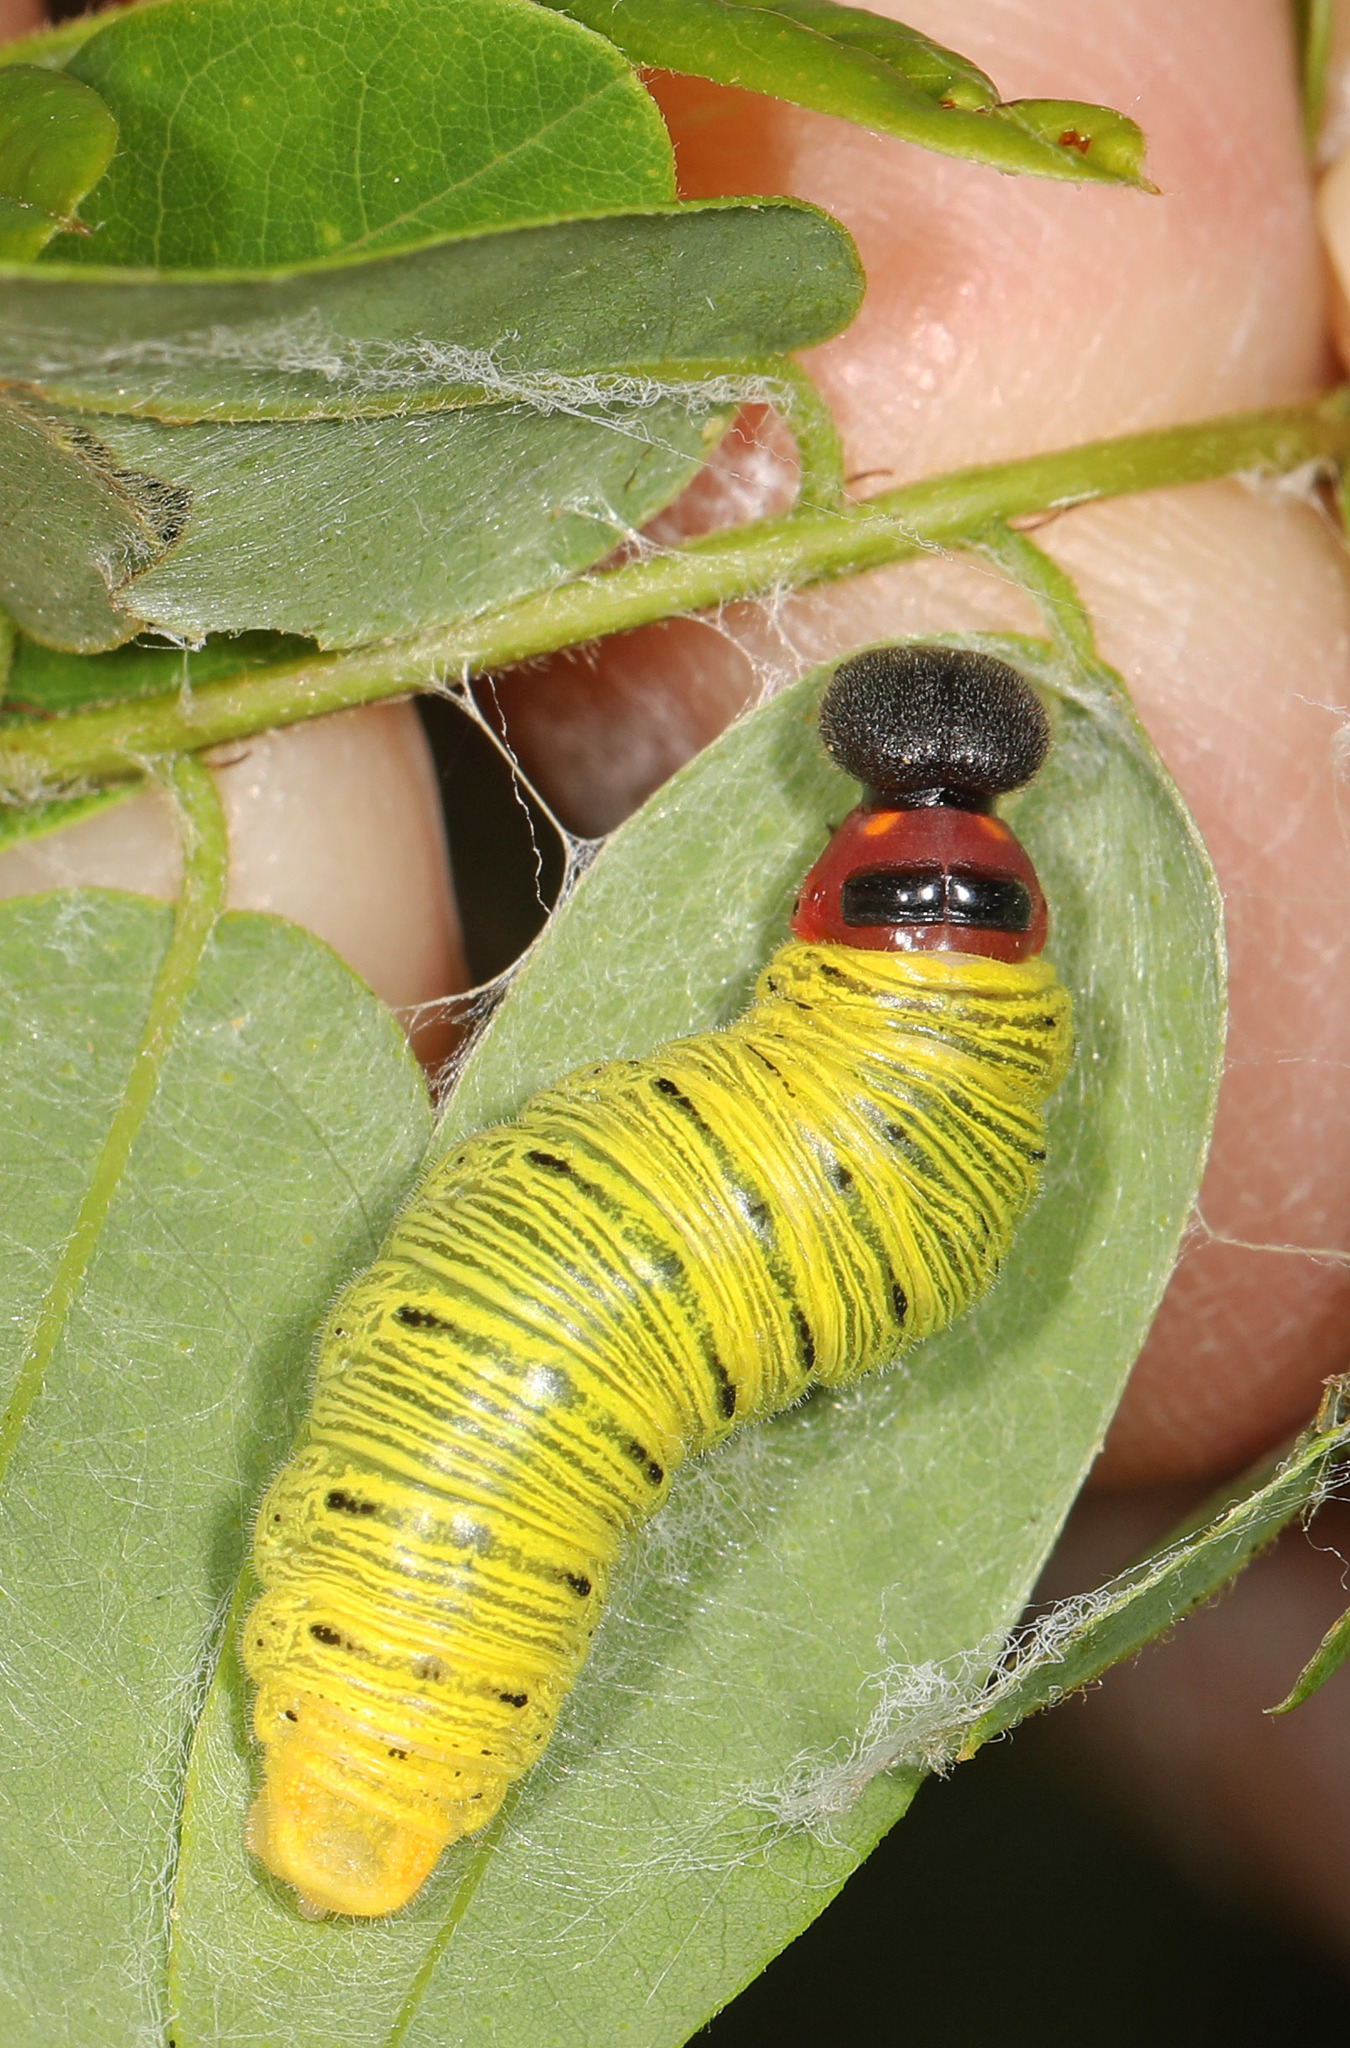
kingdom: Animalia
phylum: Arthropoda
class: Insecta
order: Lepidoptera
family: Hesperiidae
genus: Epargyreus
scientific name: Epargyreus clarus
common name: Silver-spotted skipper
